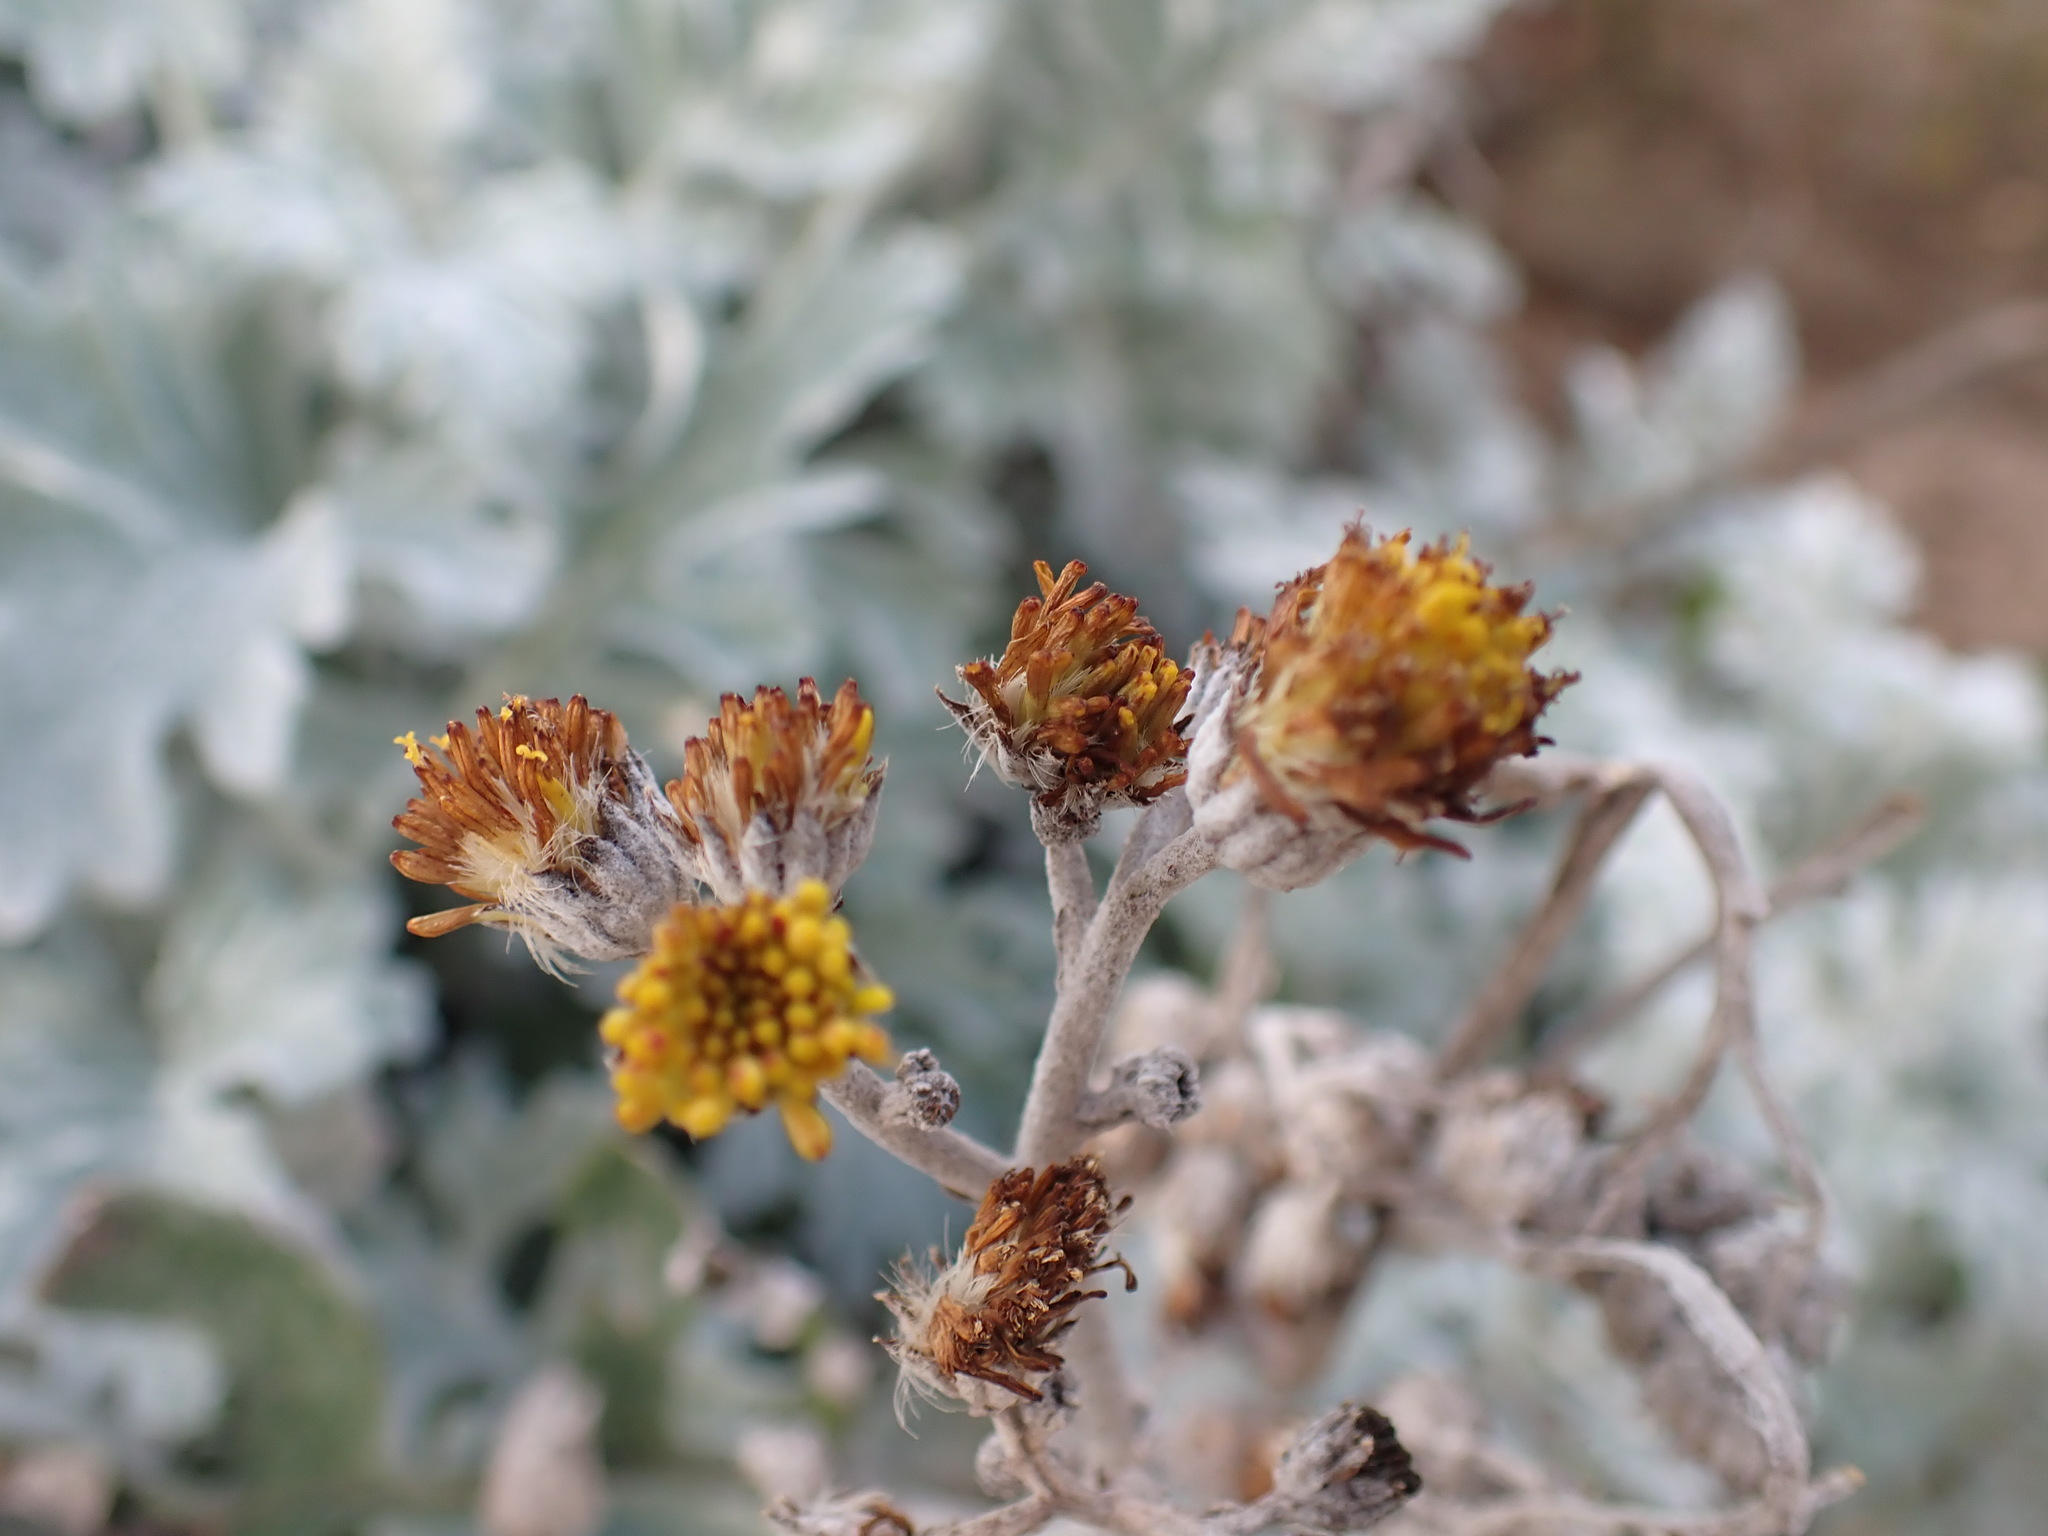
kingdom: Plantae
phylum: Tracheophyta
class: Magnoliopsida
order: Asterales
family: Asteraceae
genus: Jacobaea
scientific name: Jacobaea maritima
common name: Silver ragwort
